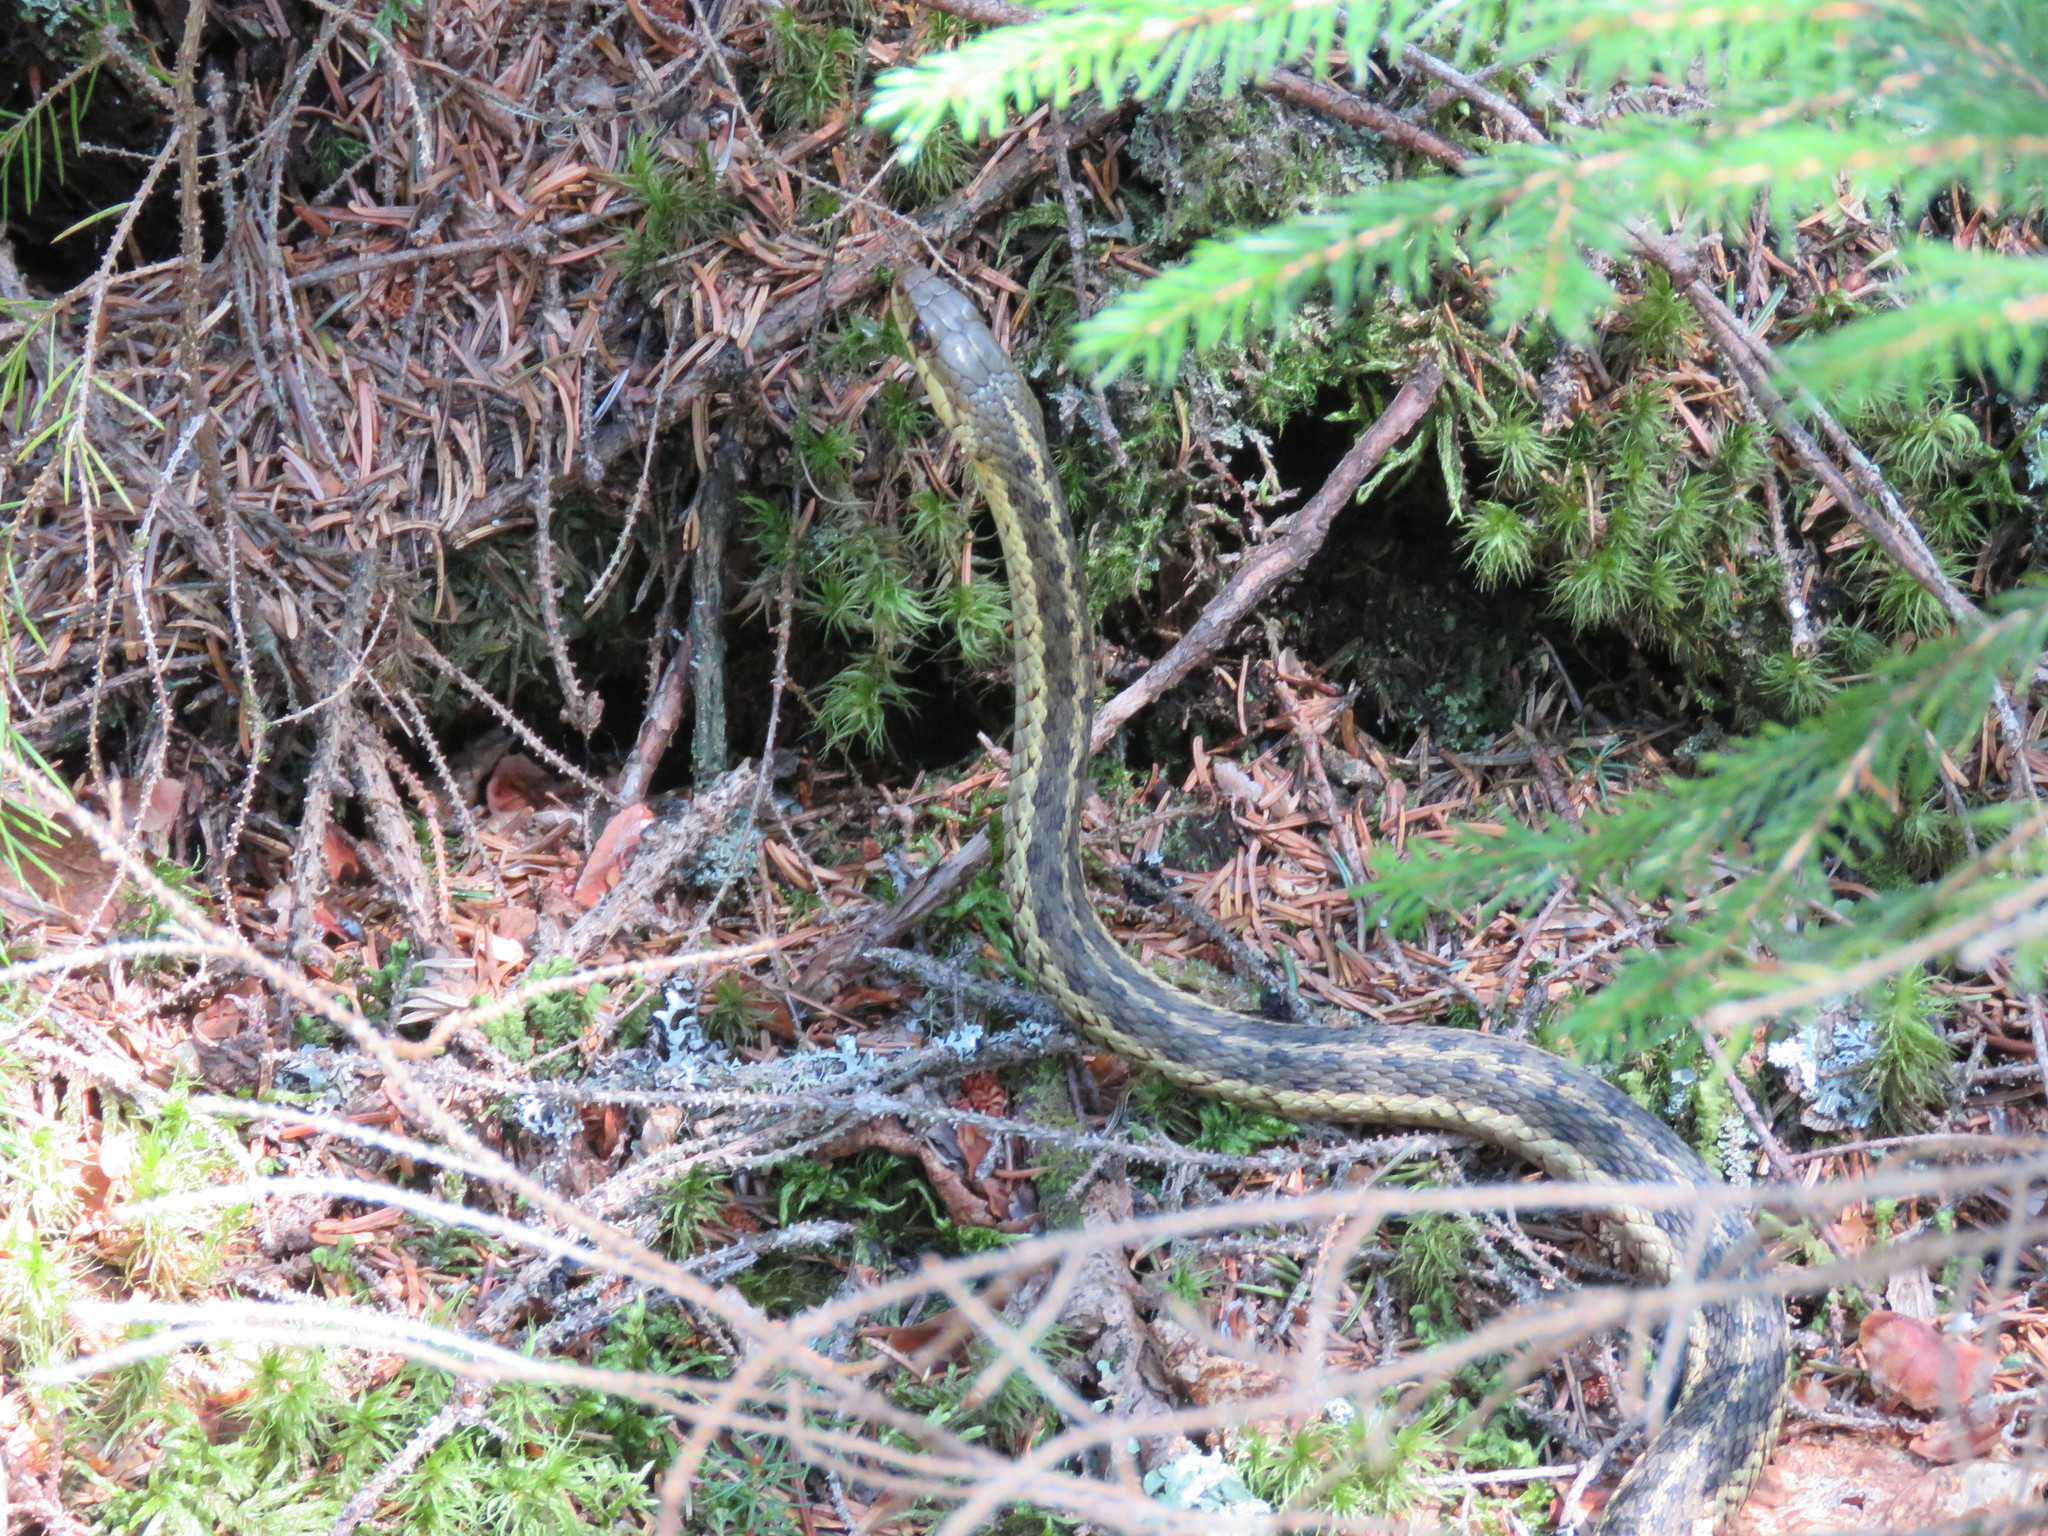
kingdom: Animalia
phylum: Chordata
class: Squamata
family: Colubridae
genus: Thamnophis
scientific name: Thamnophis sirtalis
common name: Common garter snake
